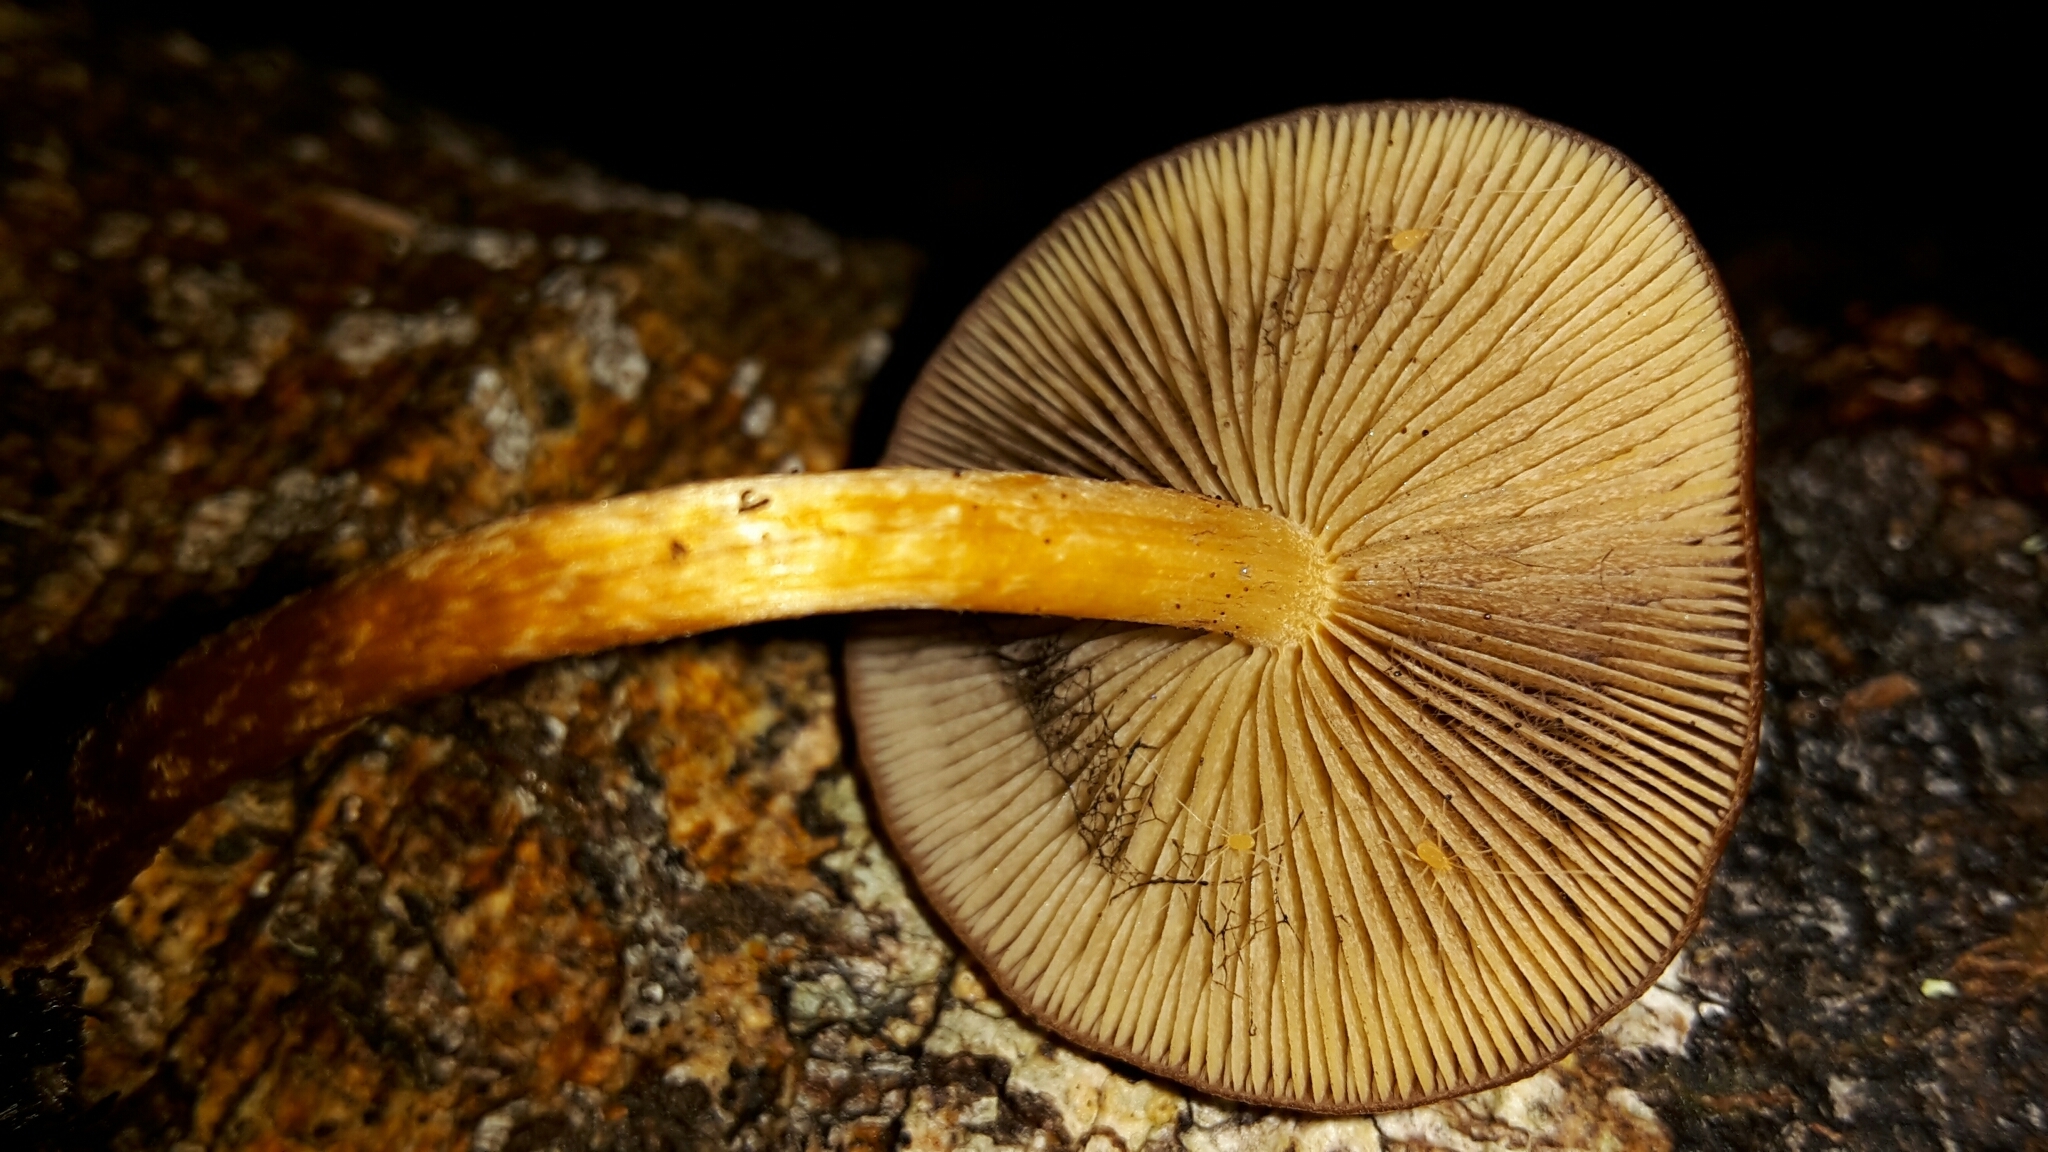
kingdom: Fungi
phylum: Basidiomycota
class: Agaricomycetes
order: Agaricales
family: Strophariaceae
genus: Hypholoma
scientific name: Hypholoma brunneum
